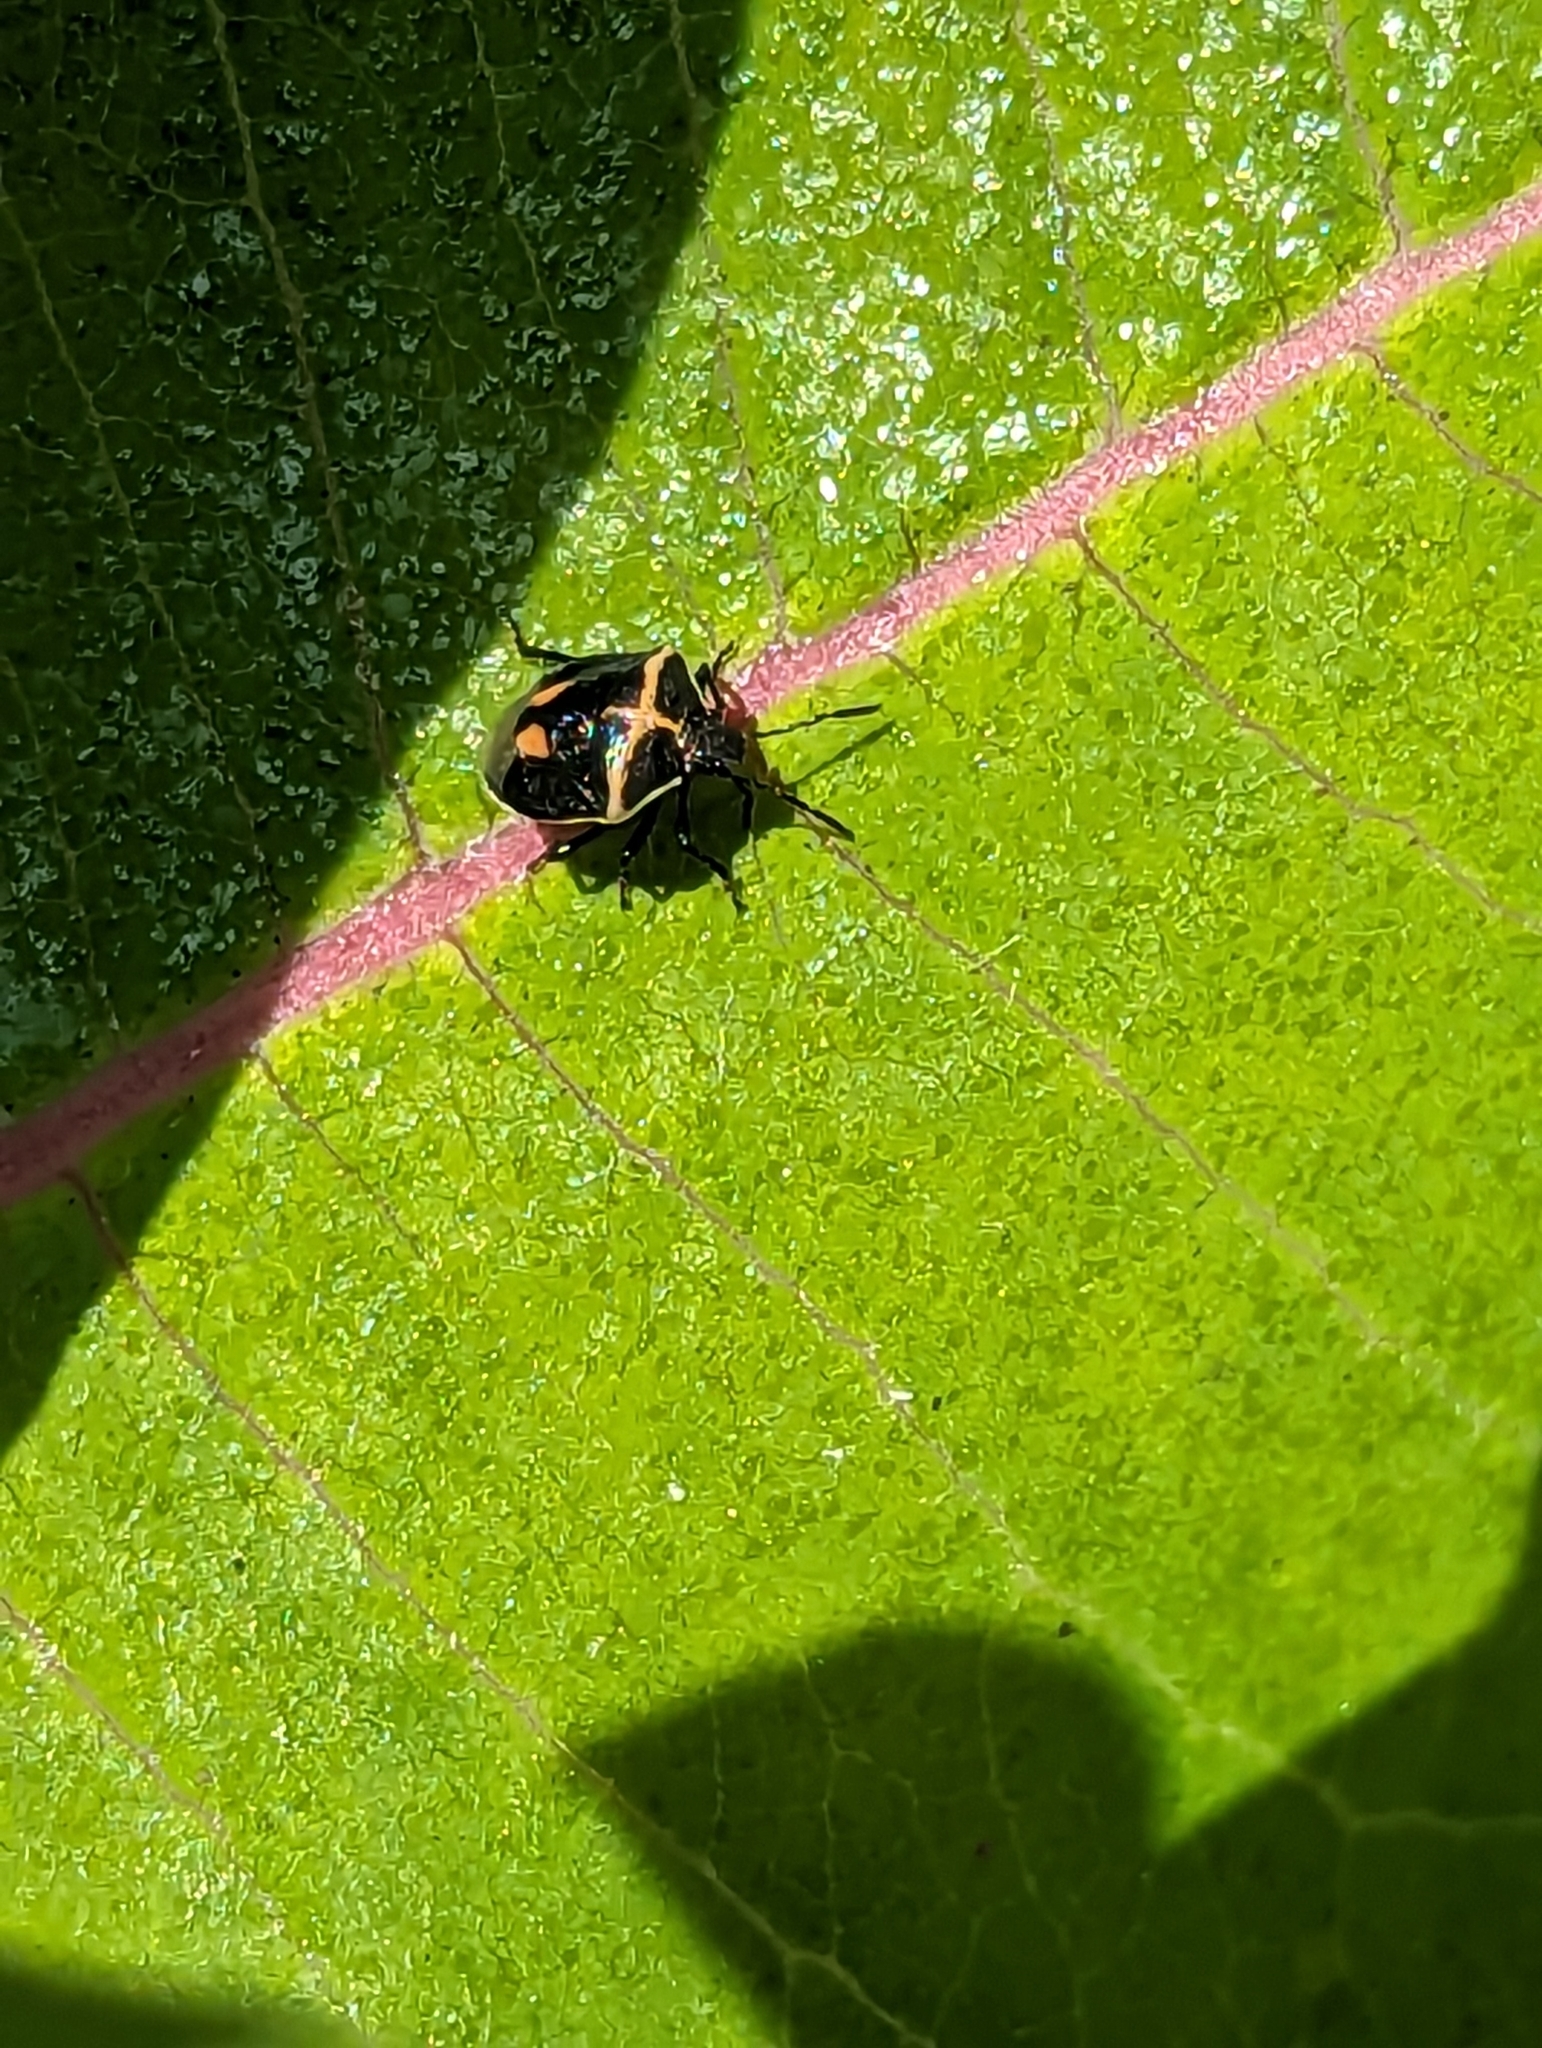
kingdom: Animalia
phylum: Arthropoda
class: Insecta
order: Hemiptera
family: Pentatomidae
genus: Cosmopepla
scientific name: Cosmopepla lintneriana
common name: Twice-stabbed stink bug
